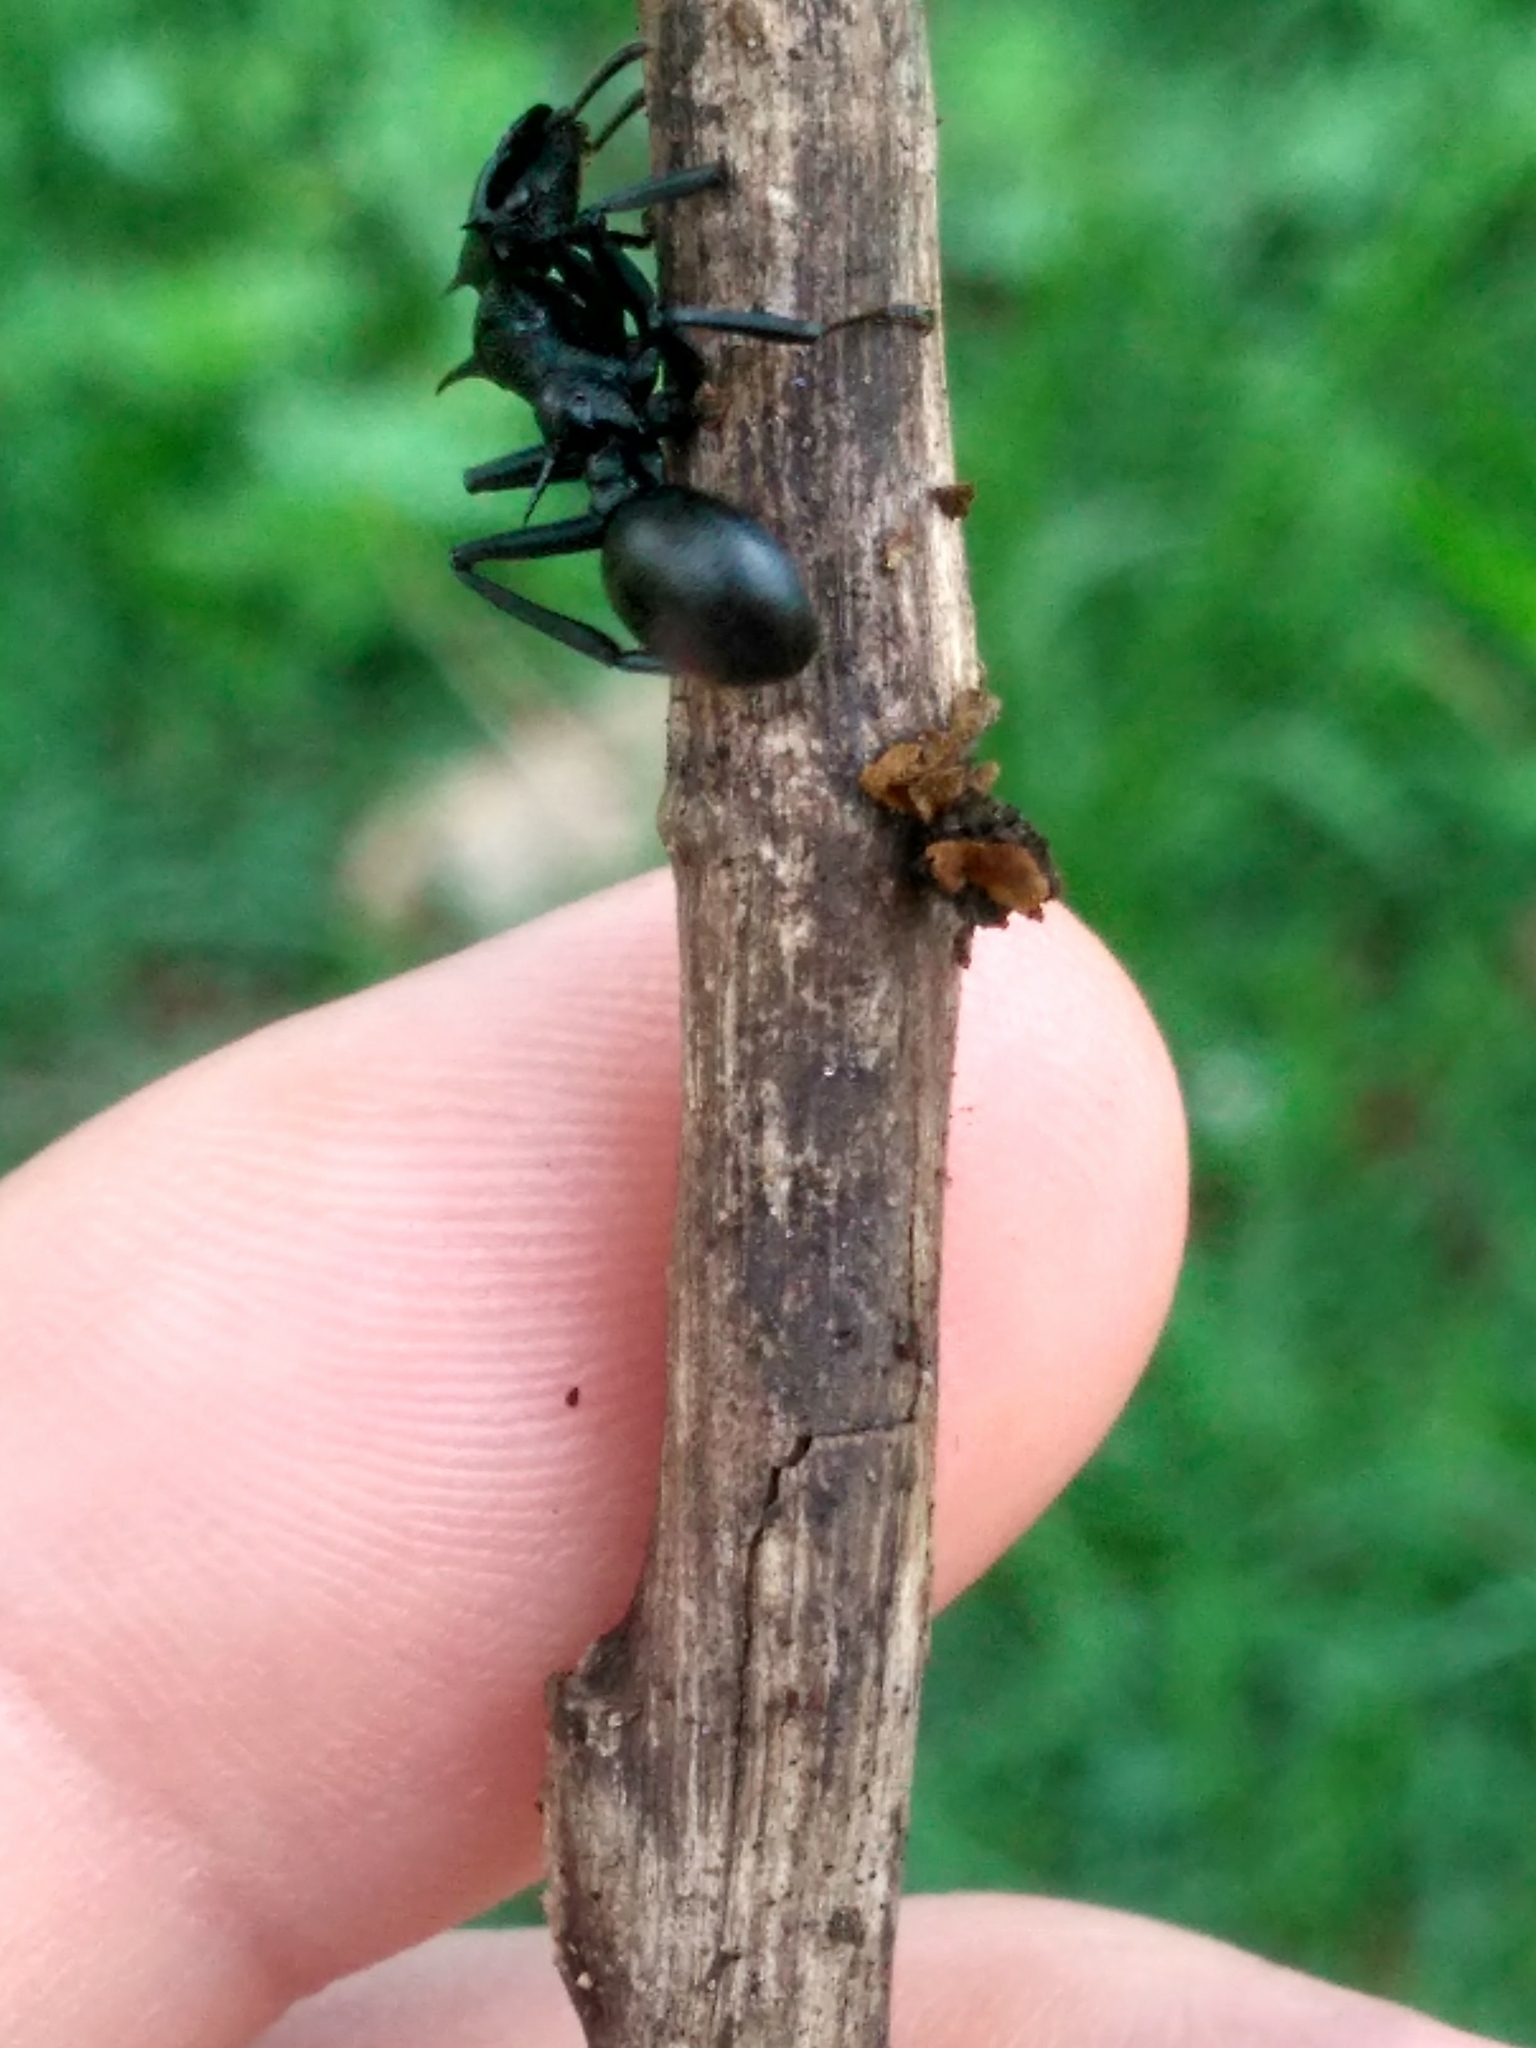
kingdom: Animalia
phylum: Arthropoda
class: Insecta
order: Hymenoptera
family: Formicidae
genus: Cephalotes
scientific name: Cephalotes atratus
